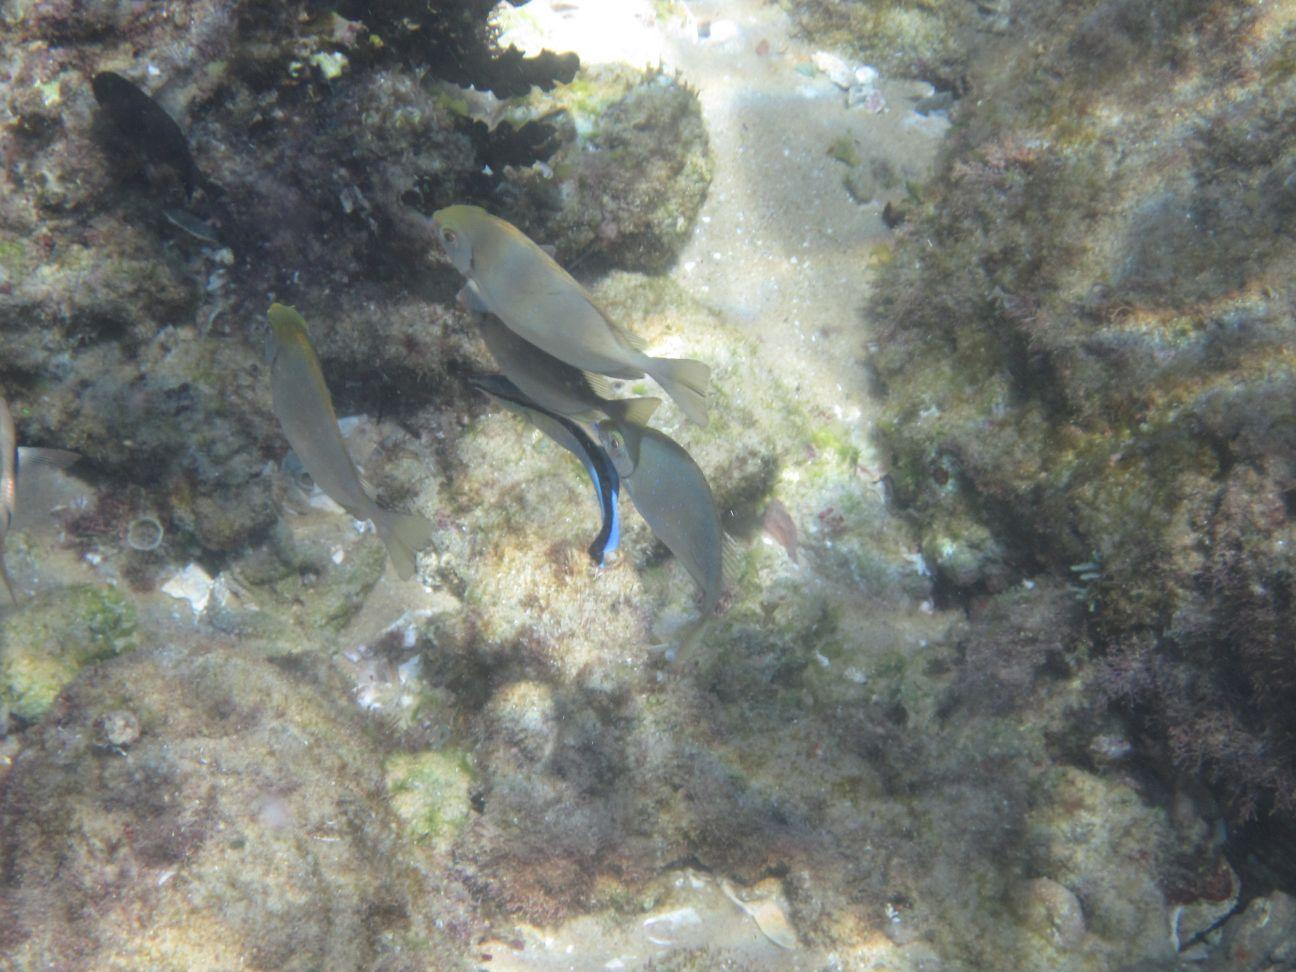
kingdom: Animalia
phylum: Chordata
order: Perciformes
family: Siganidae
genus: Siganus
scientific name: Siganus sutor
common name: Shoemaker spinefoot
